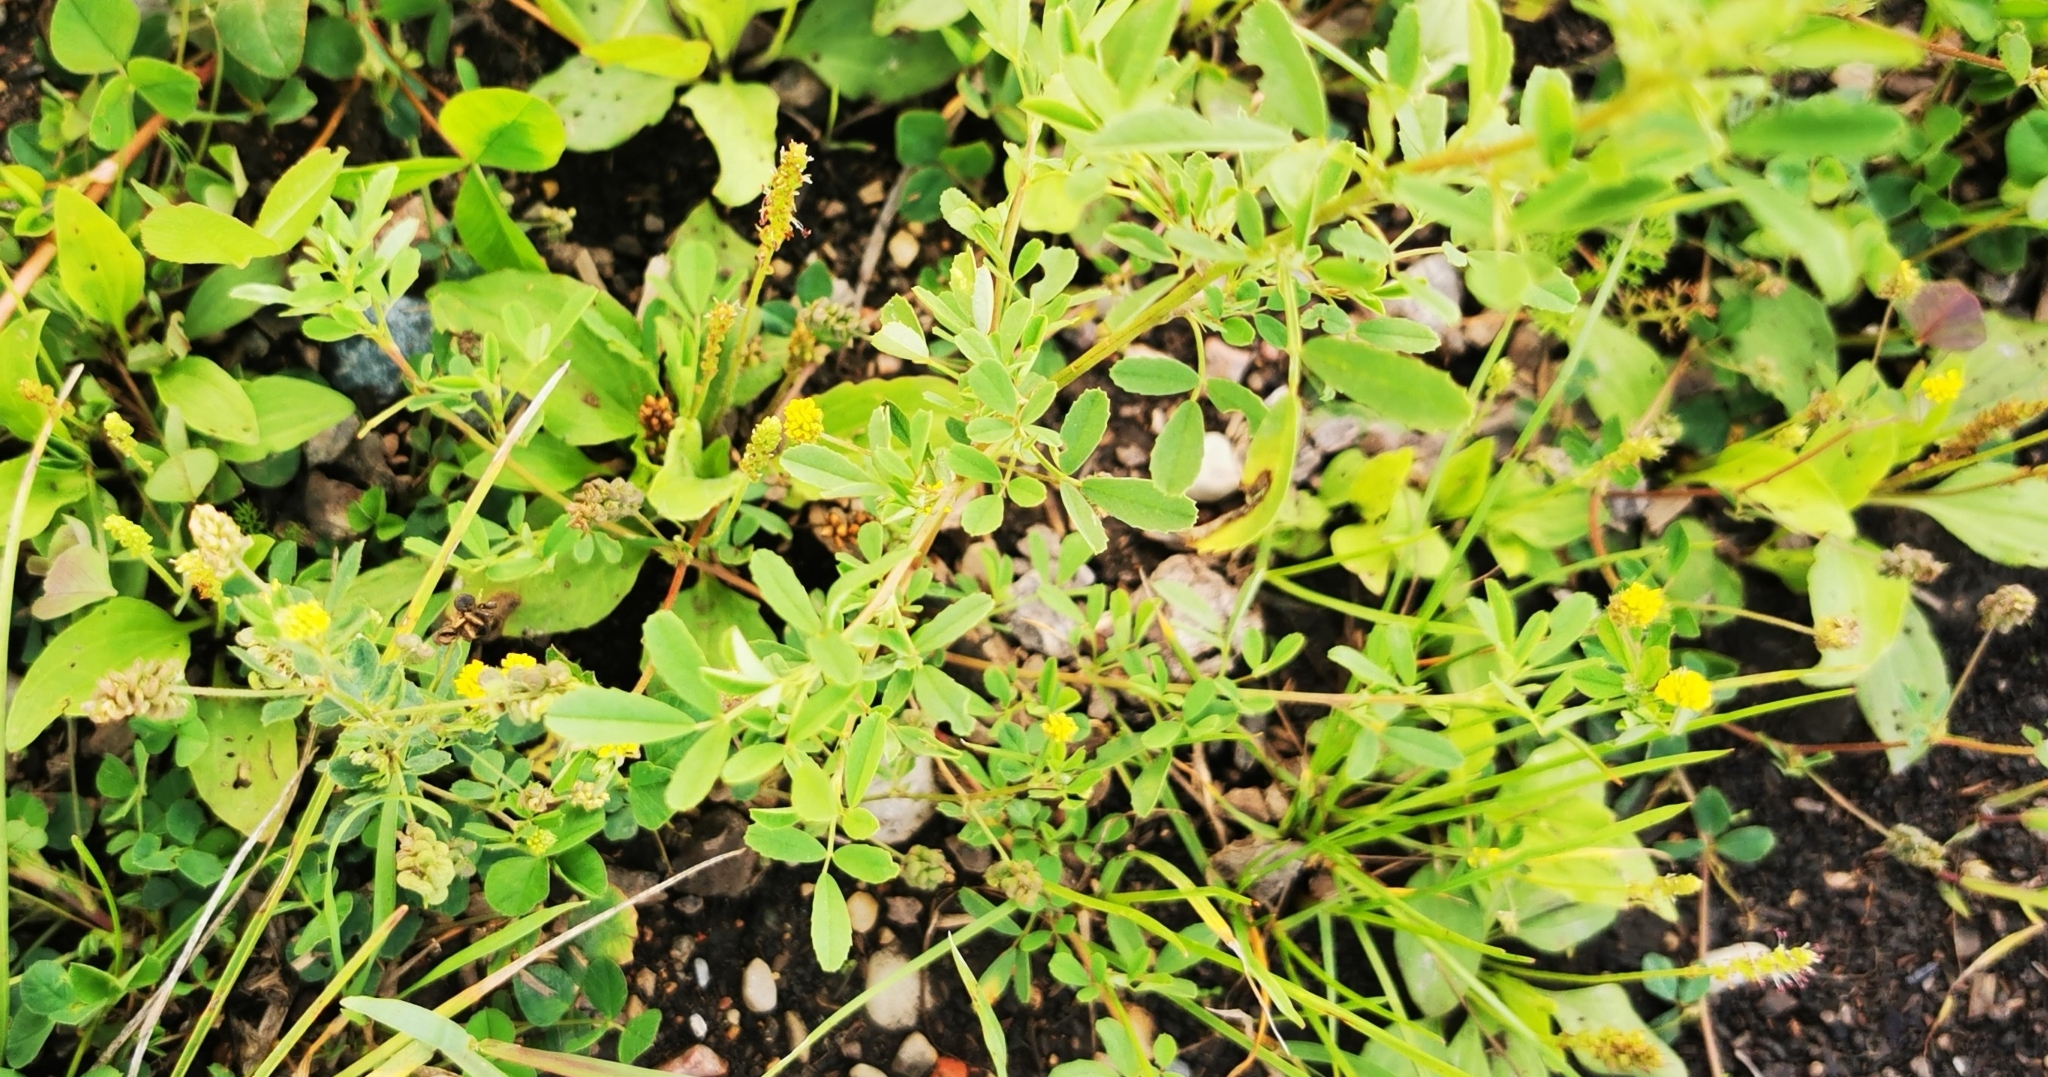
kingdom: Plantae
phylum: Tracheophyta
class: Magnoliopsida
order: Fabales
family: Fabaceae
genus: Medicago
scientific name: Medicago lupulina
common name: Black medick
